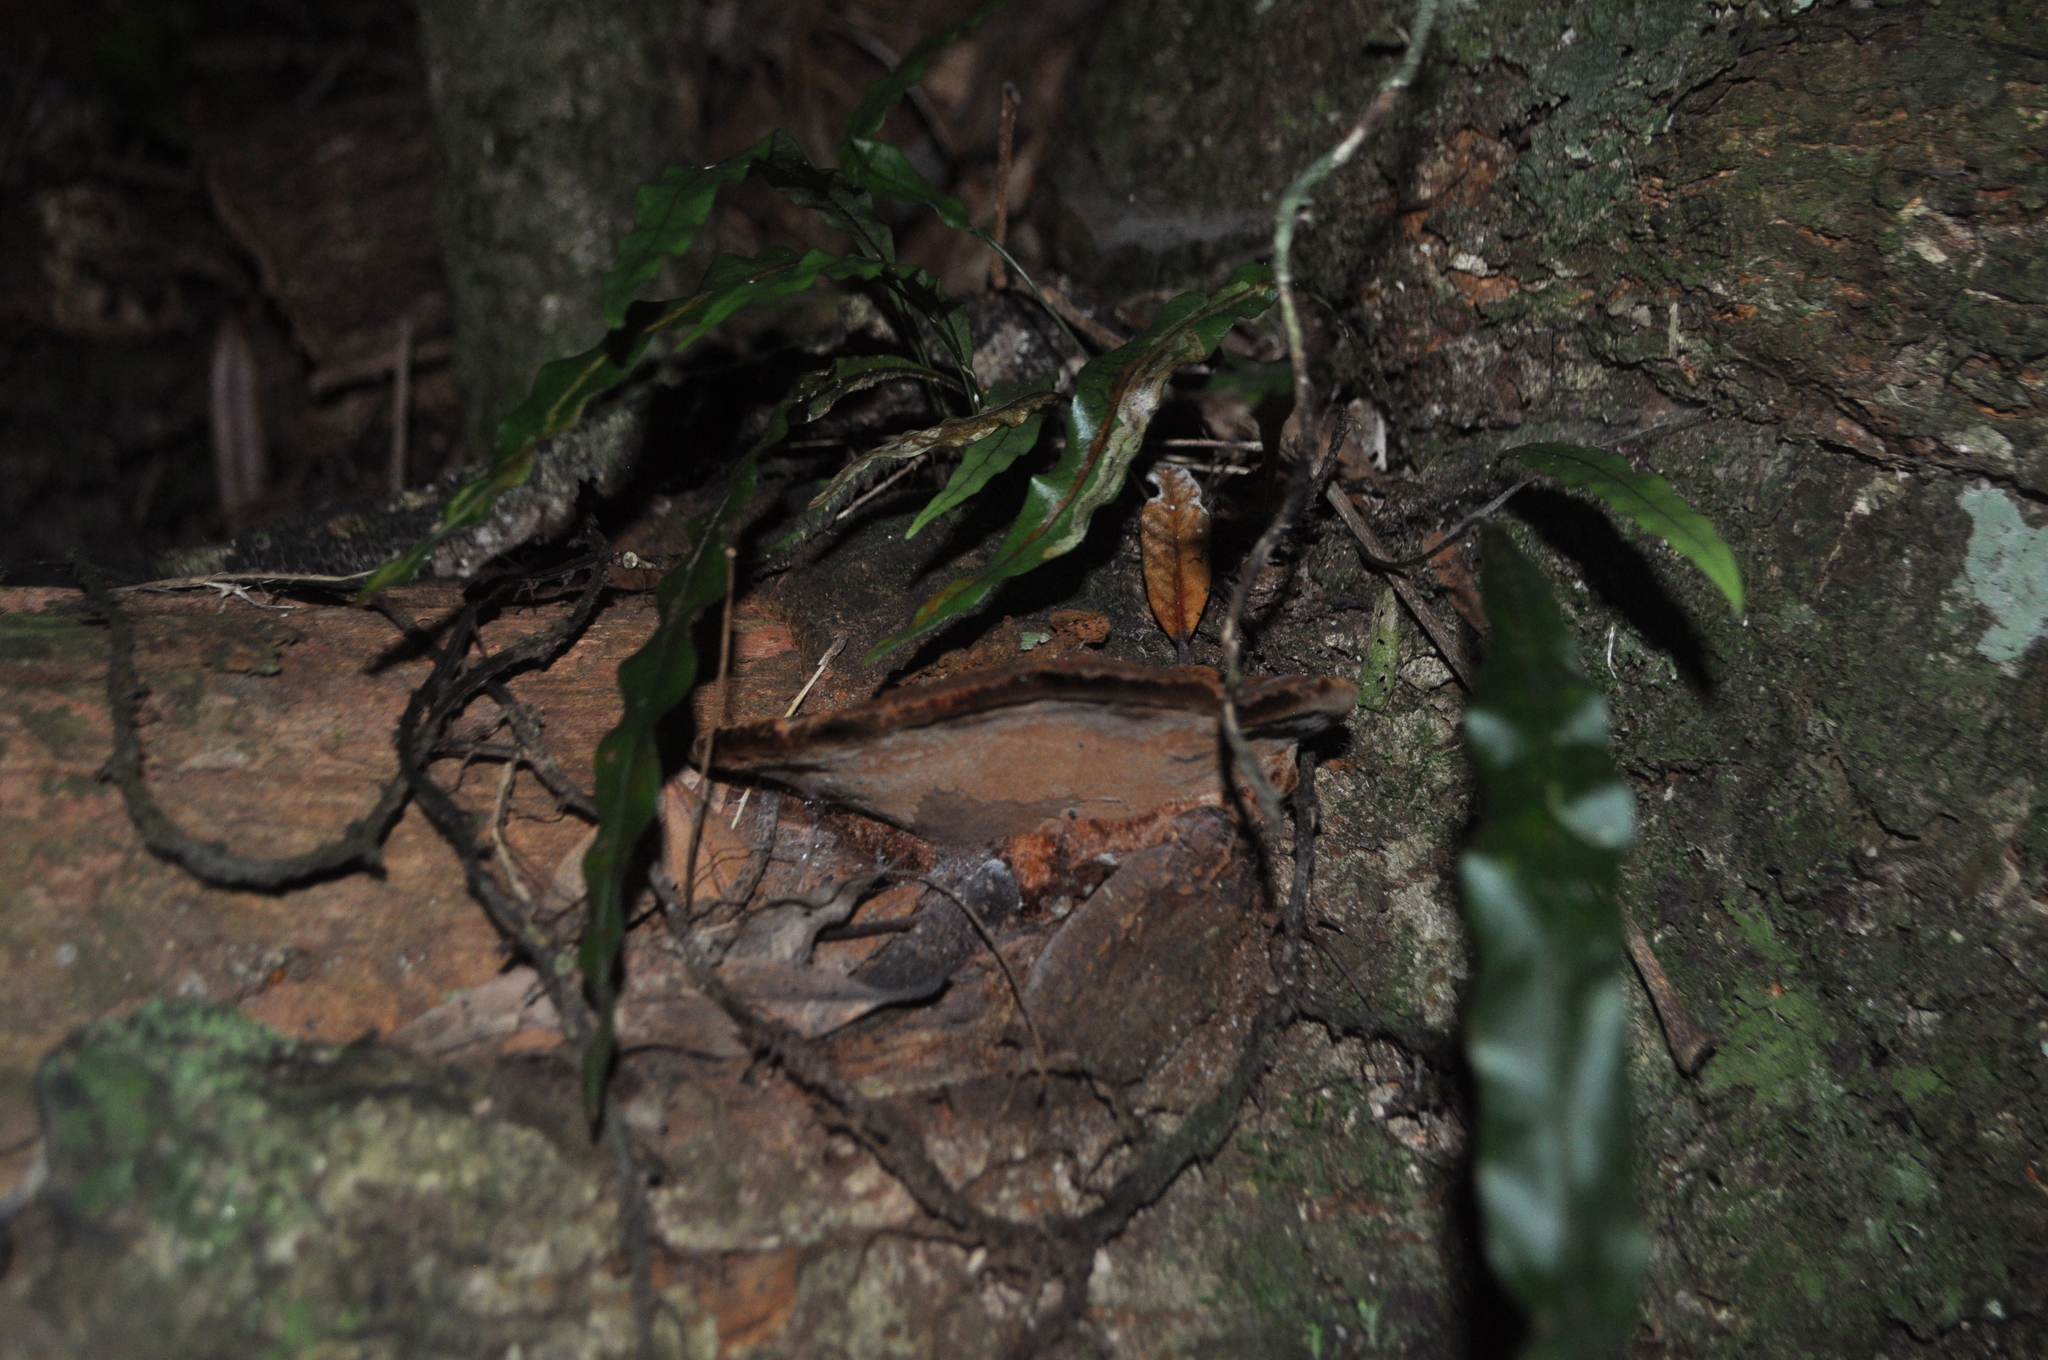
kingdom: Plantae
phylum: Tracheophyta
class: Polypodiopsida
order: Polypodiales
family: Polypodiaceae
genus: Lecanopteris
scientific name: Lecanopteris pustulata
